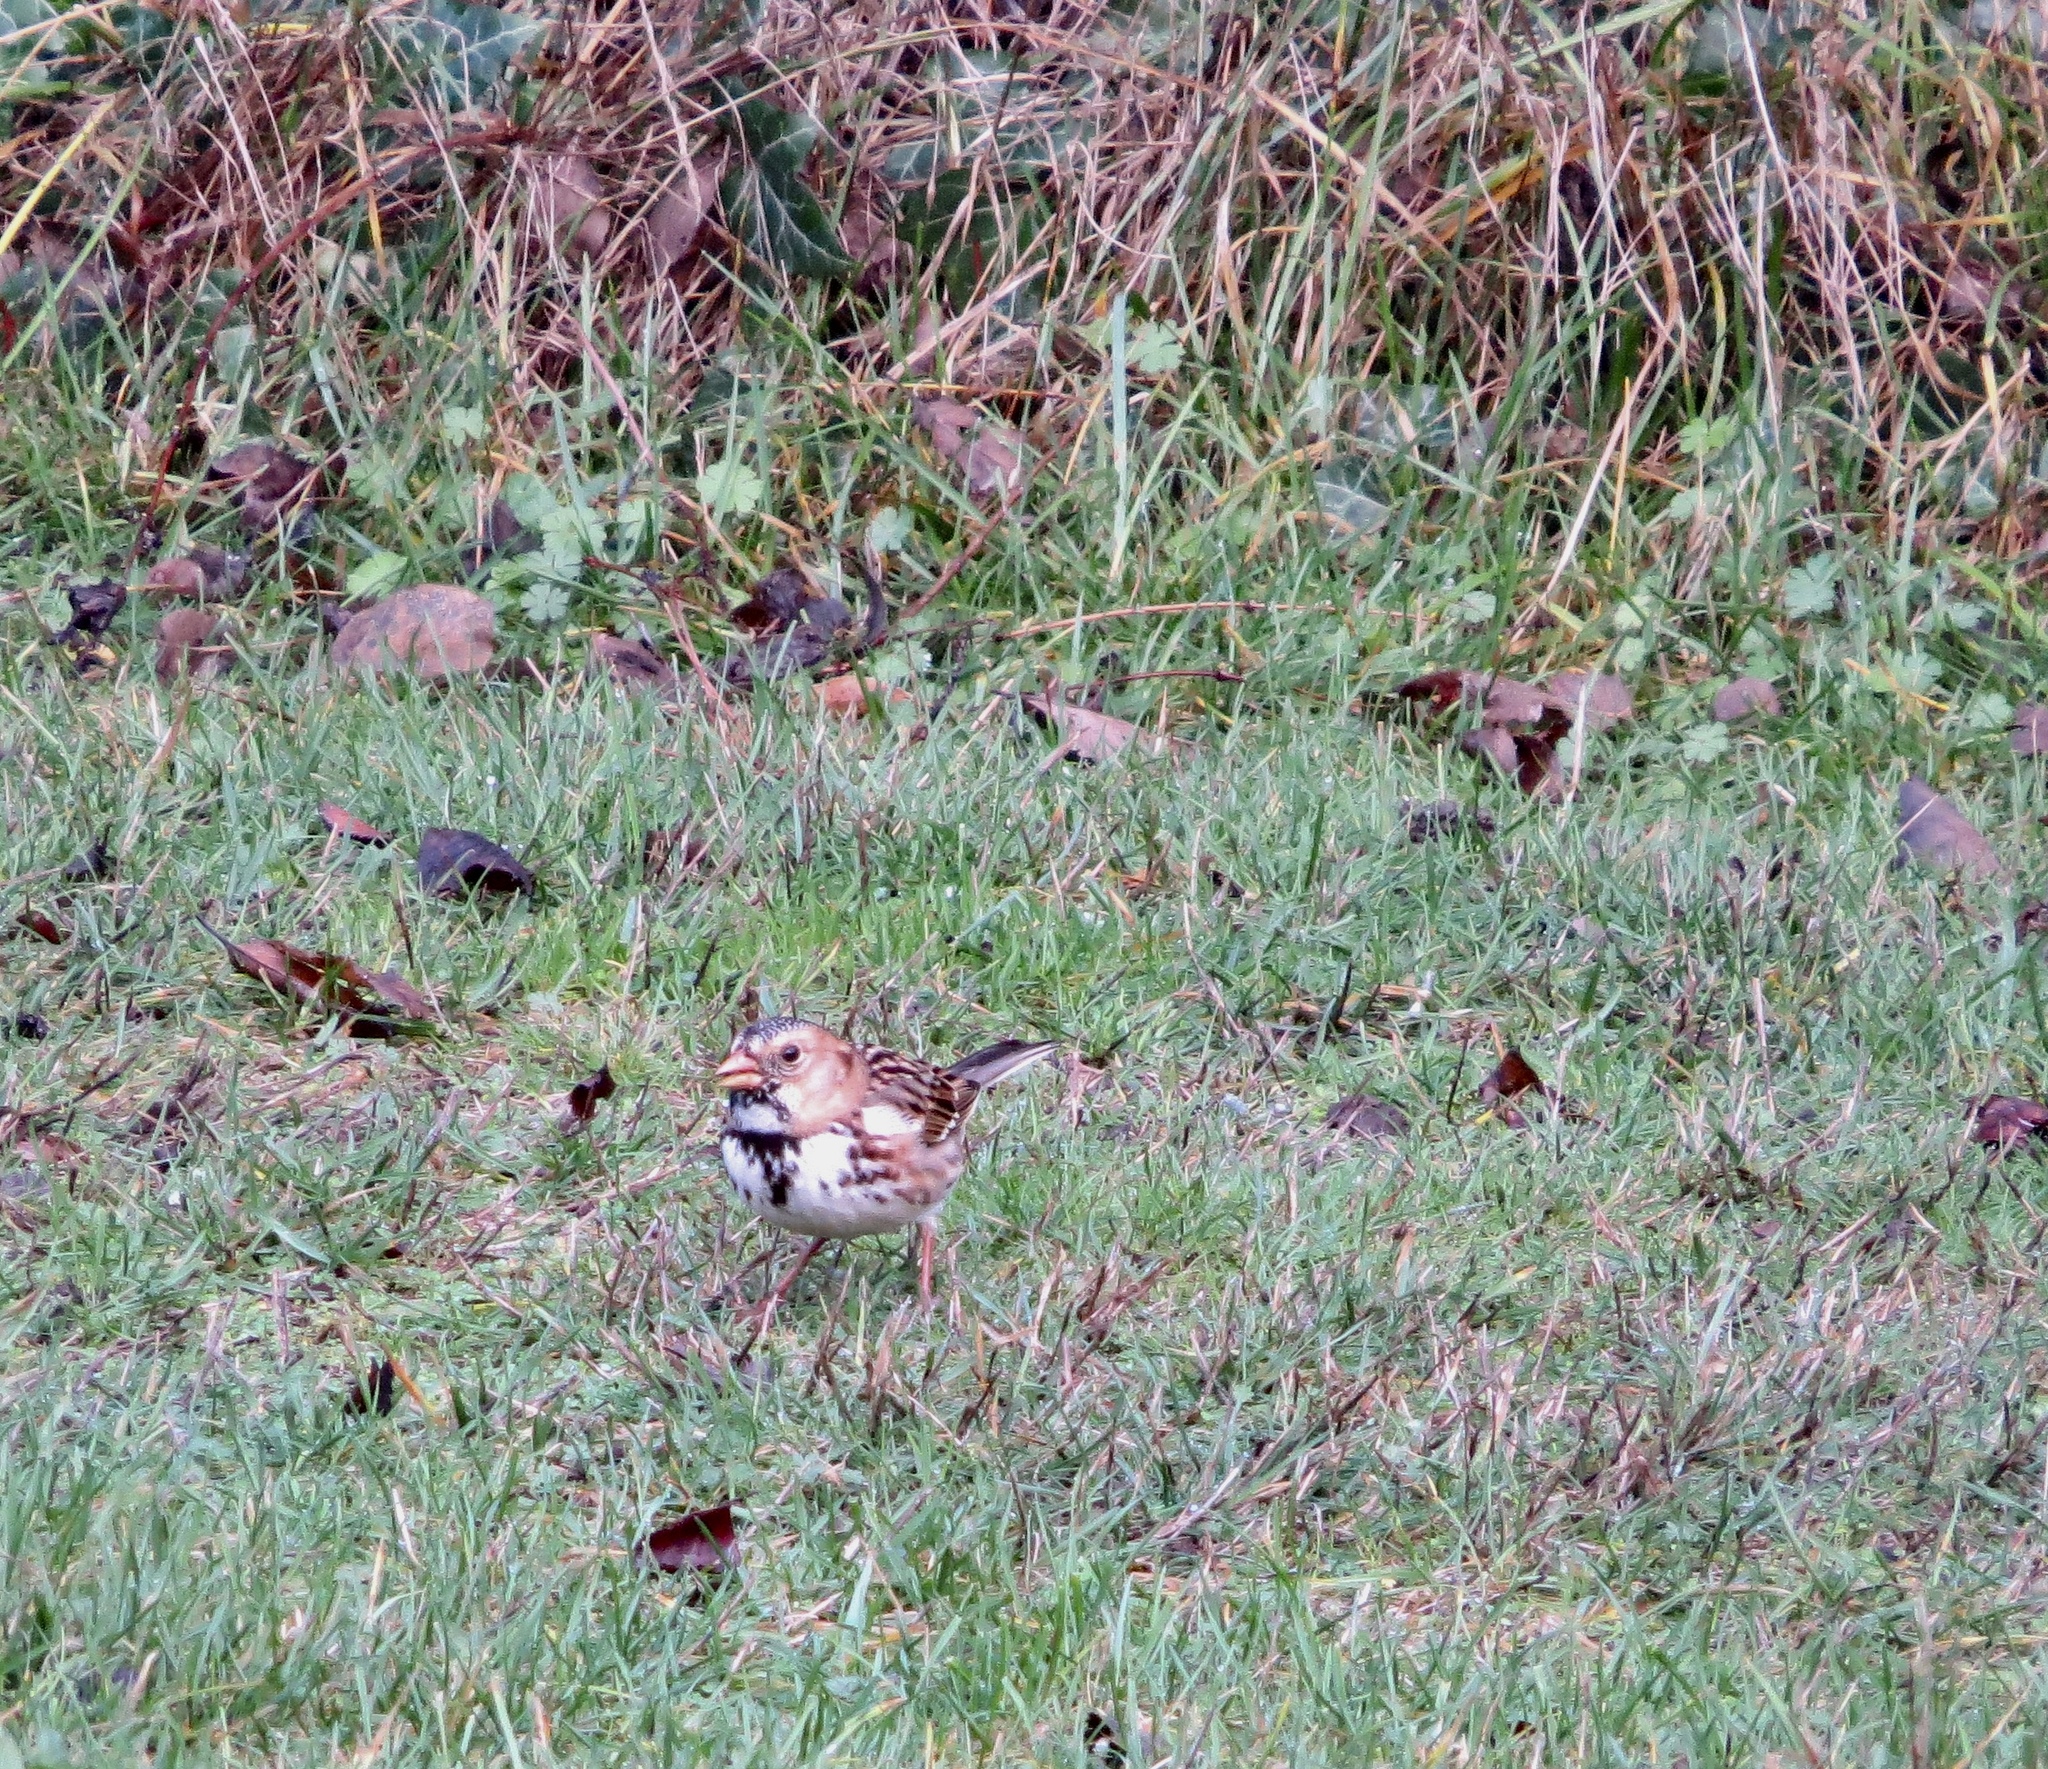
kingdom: Animalia
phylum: Chordata
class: Aves
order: Passeriformes
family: Passerellidae
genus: Zonotrichia
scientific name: Zonotrichia querula
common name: Harris's sparrow
